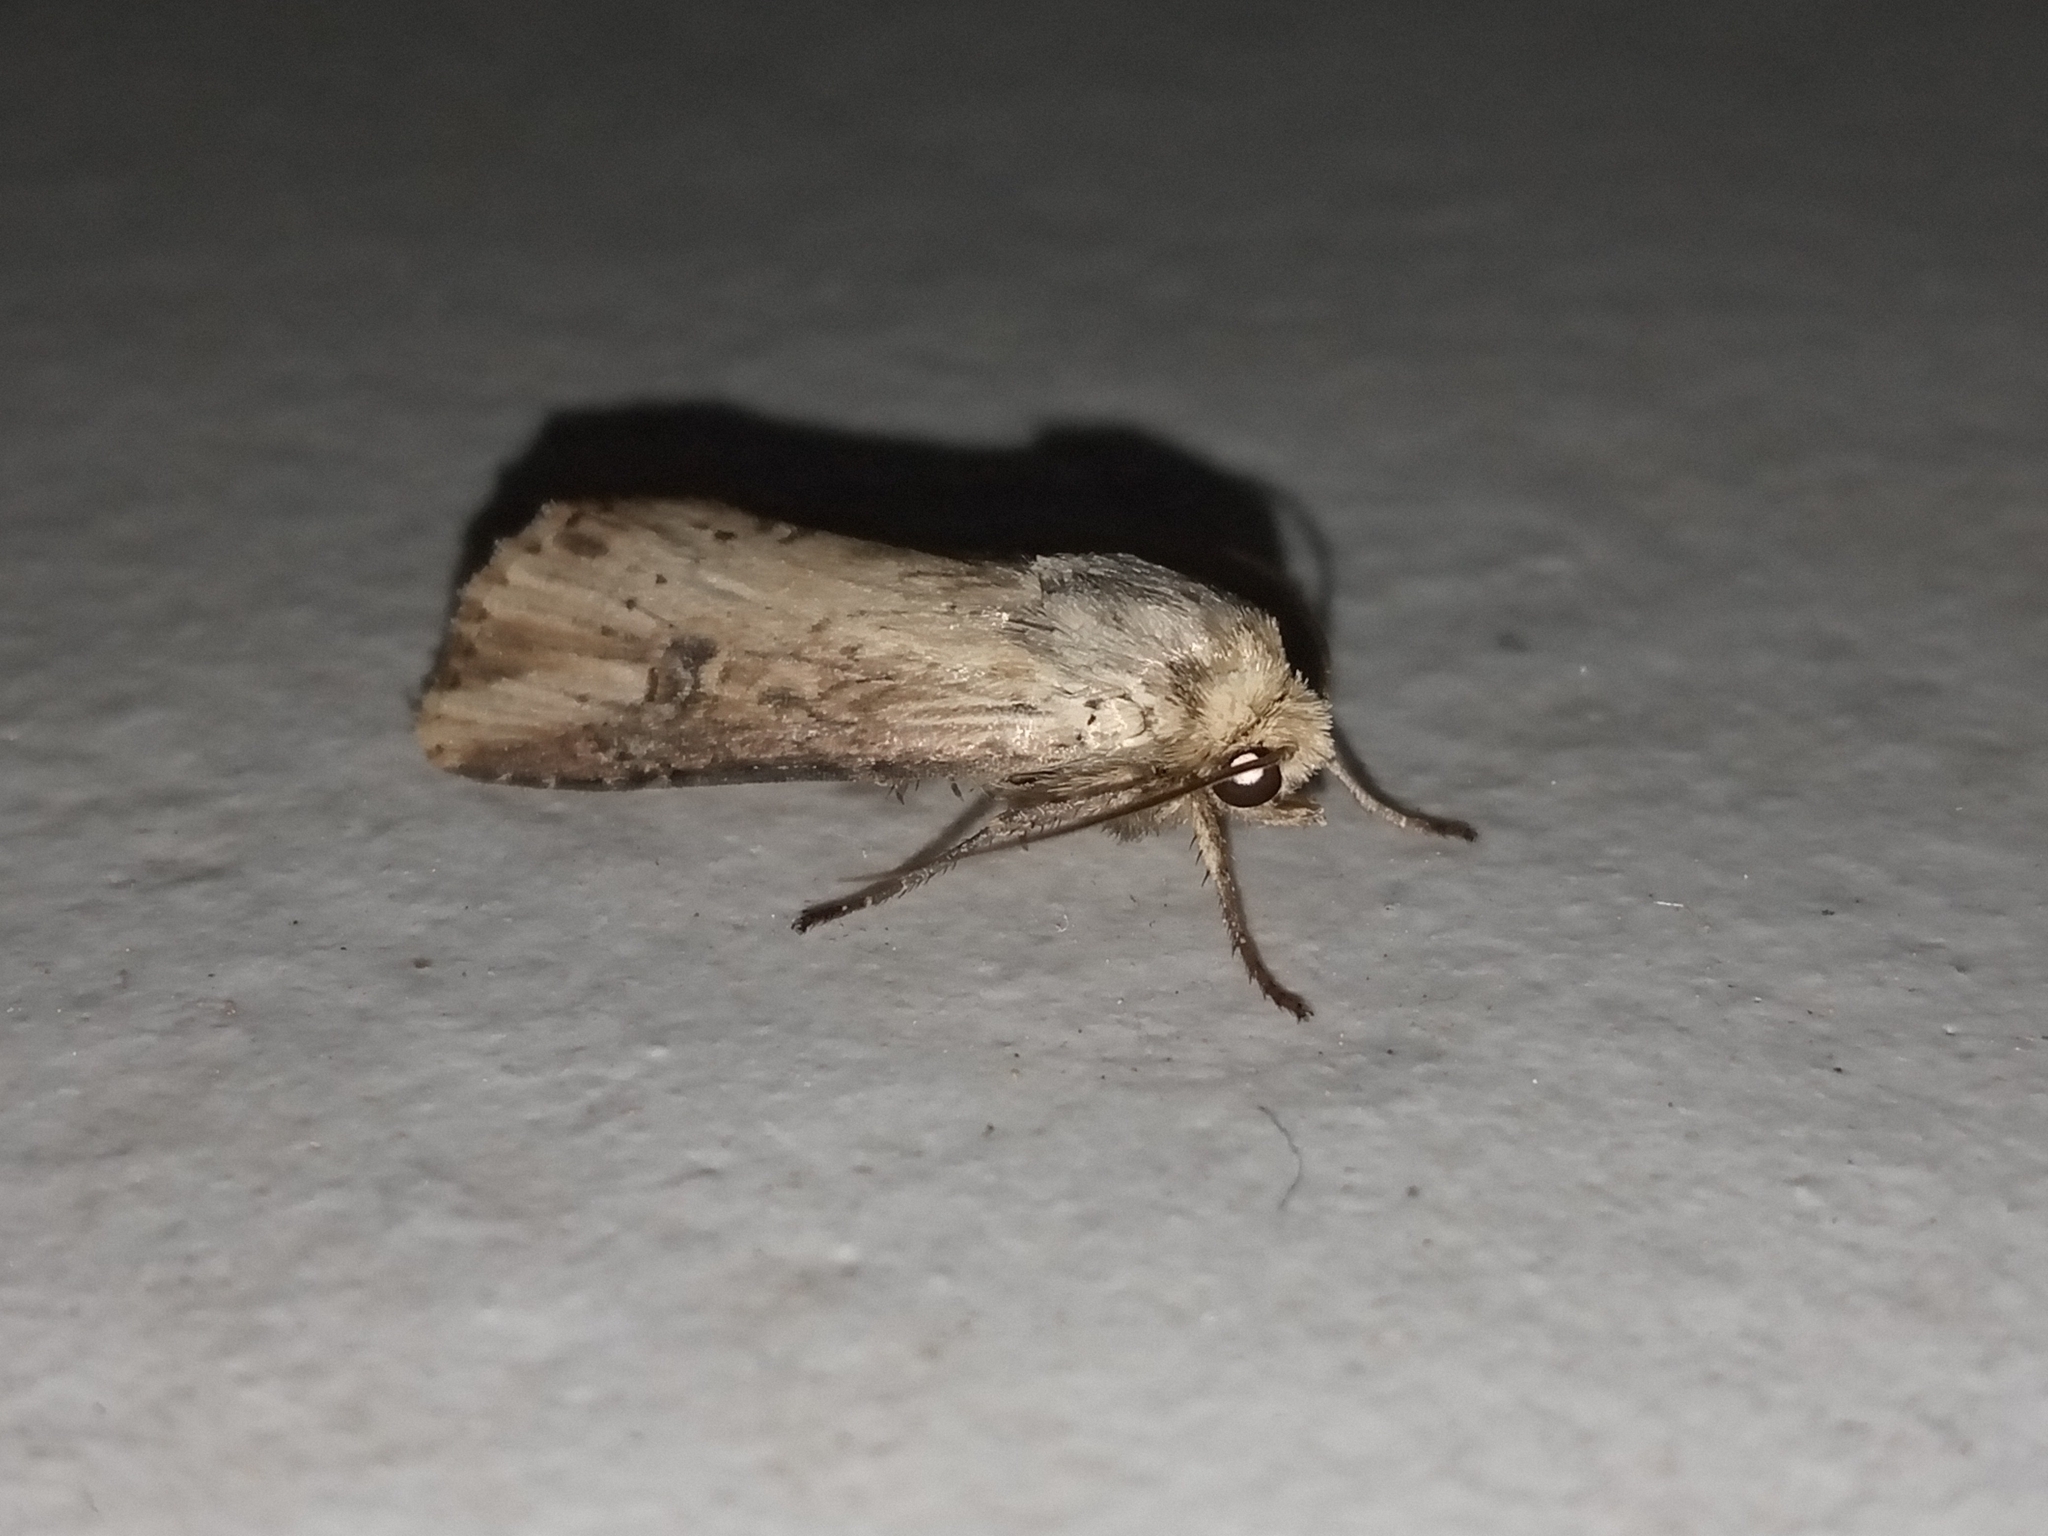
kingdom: Animalia
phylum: Arthropoda
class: Insecta
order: Lepidoptera
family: Noctuidae
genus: Axylia
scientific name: Axylia putris
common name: Flame
